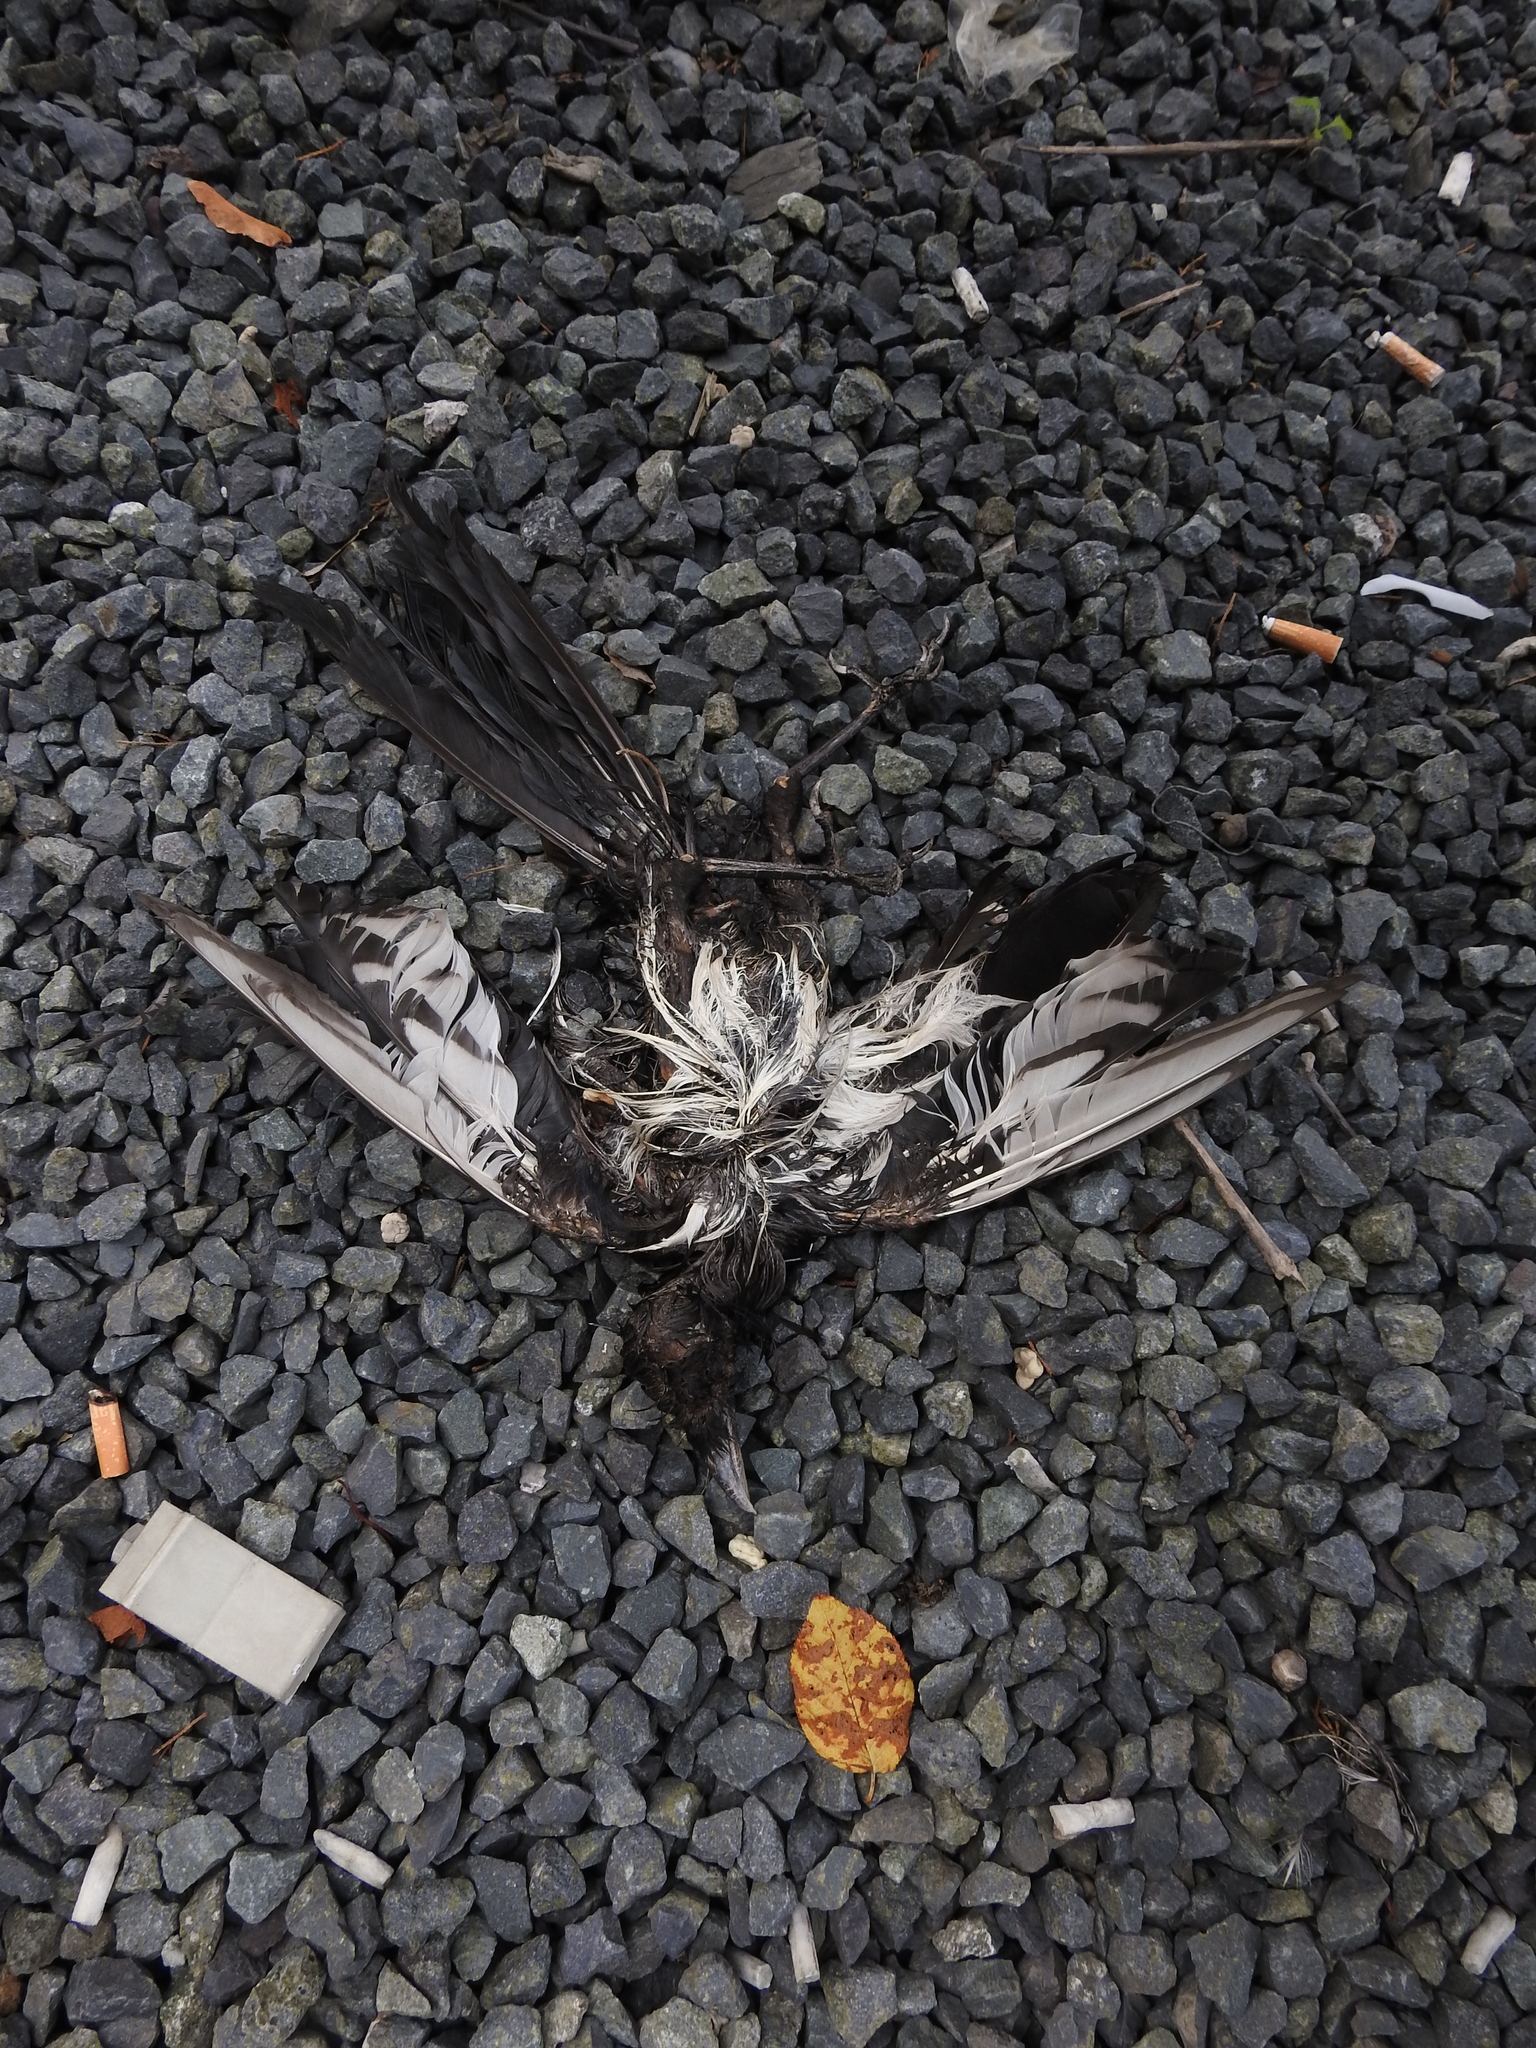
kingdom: Animalia
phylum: Chordata
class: Aves
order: Passeriformes
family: Corvidae
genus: Pica
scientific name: Pica pica
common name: Eurasian magpie
